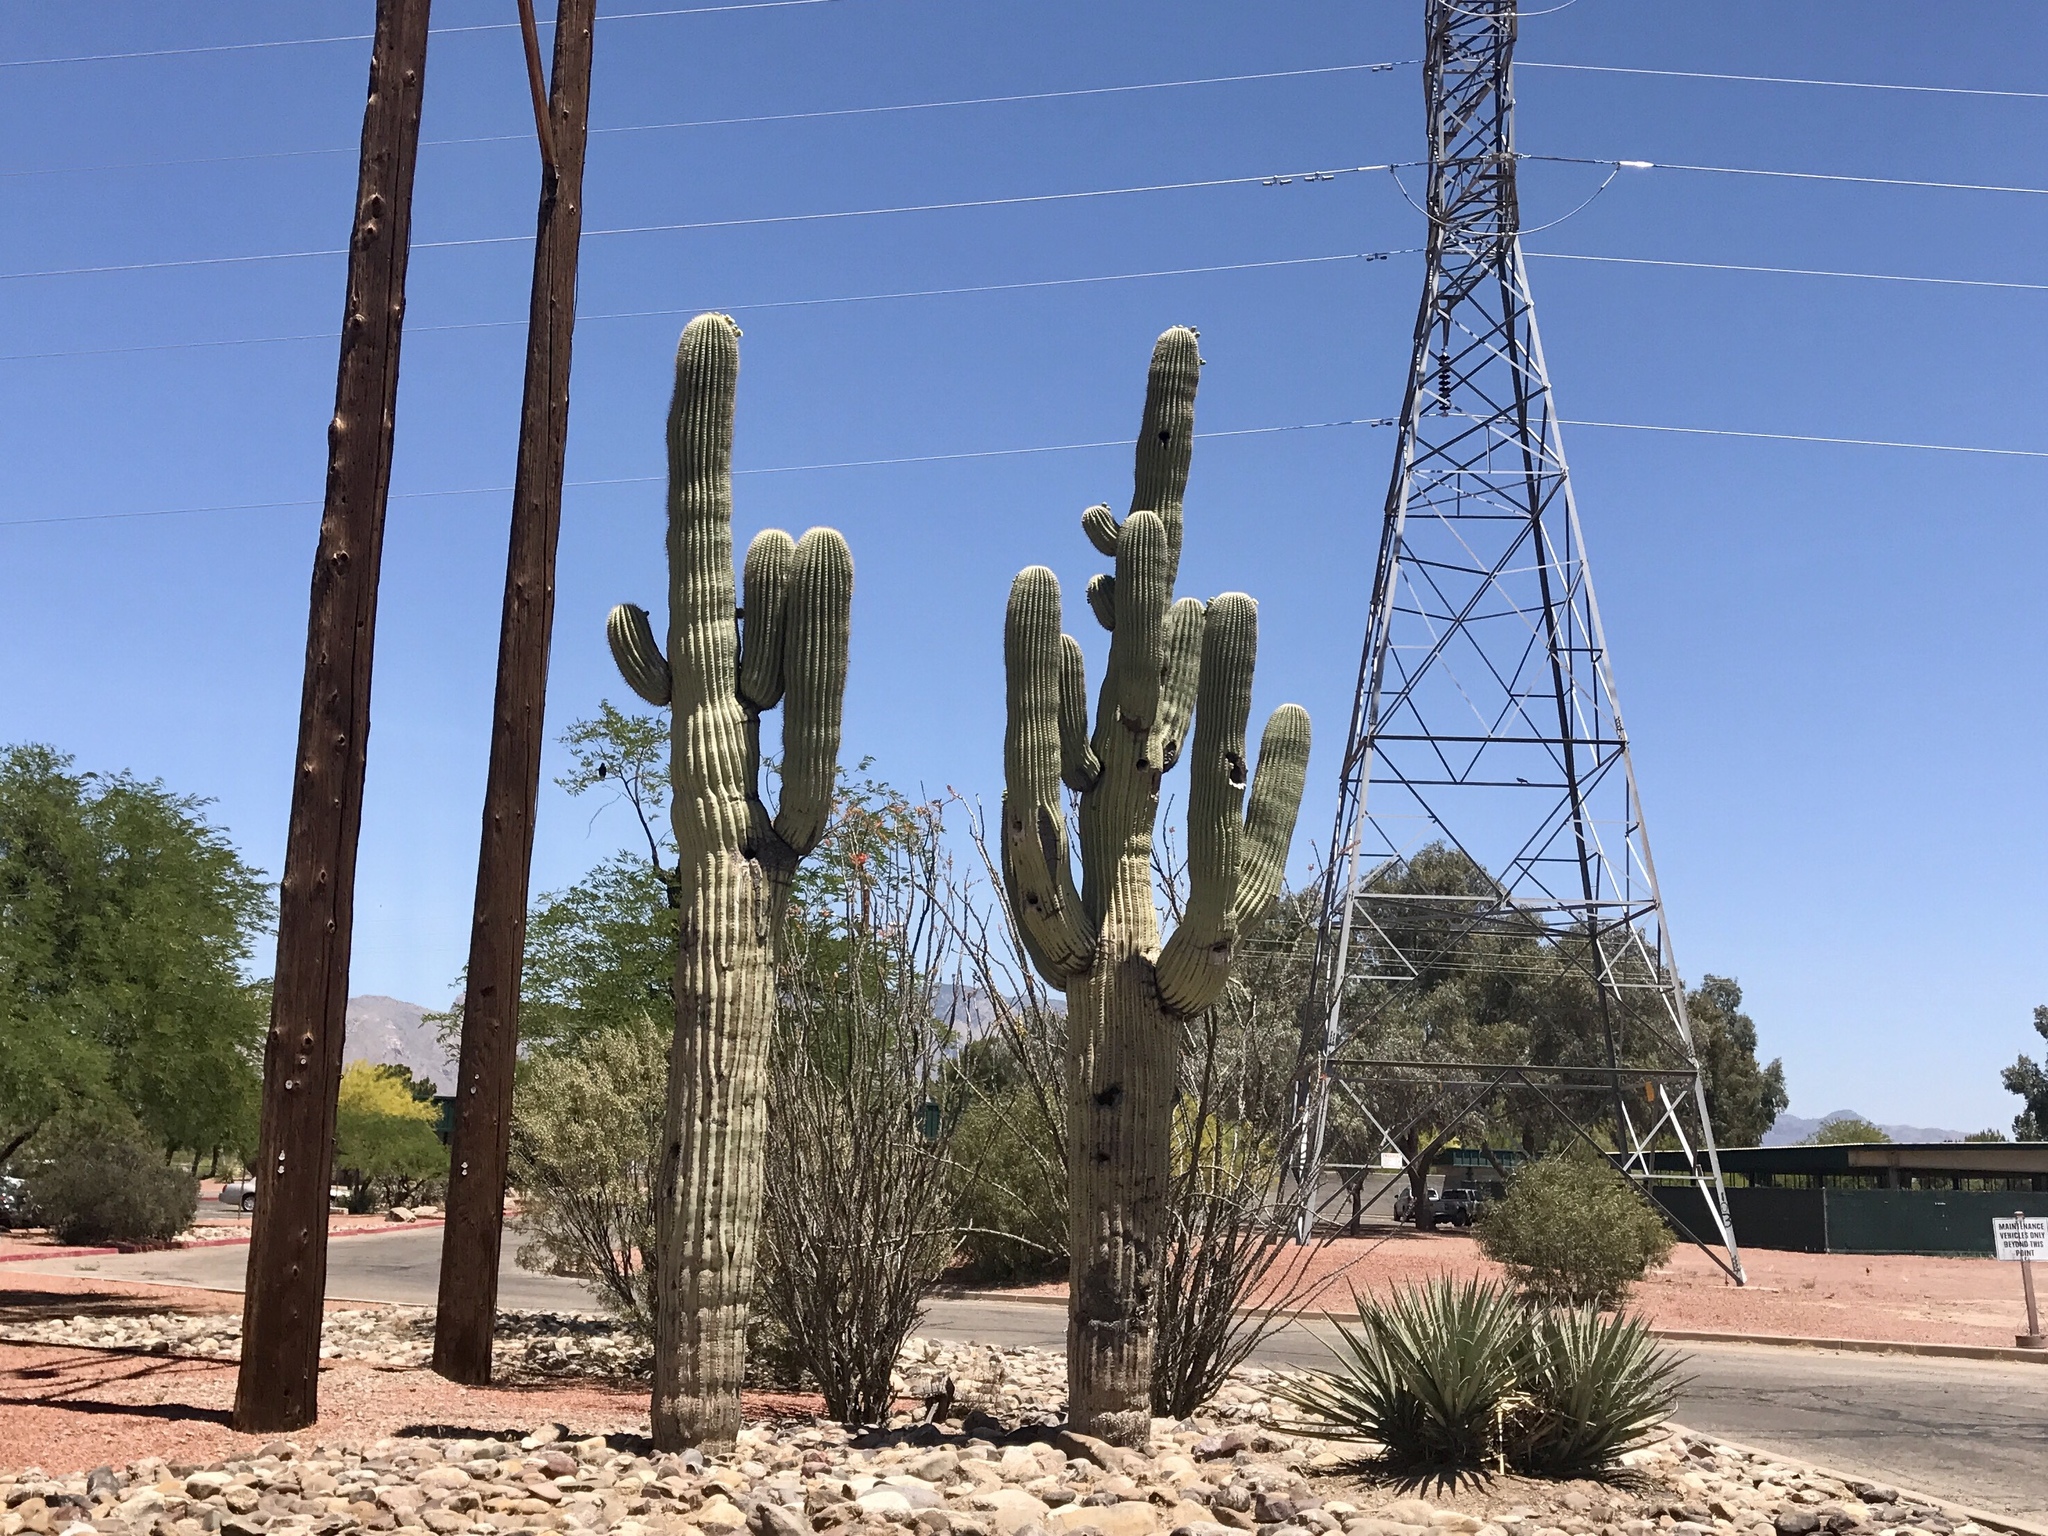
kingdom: Plantae
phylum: Tracheophyta
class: Magnoliopsida
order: Caryophyllales
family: Cactaceae
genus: Carnegiea
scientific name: Carnegiea gigantea
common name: Saguaro
